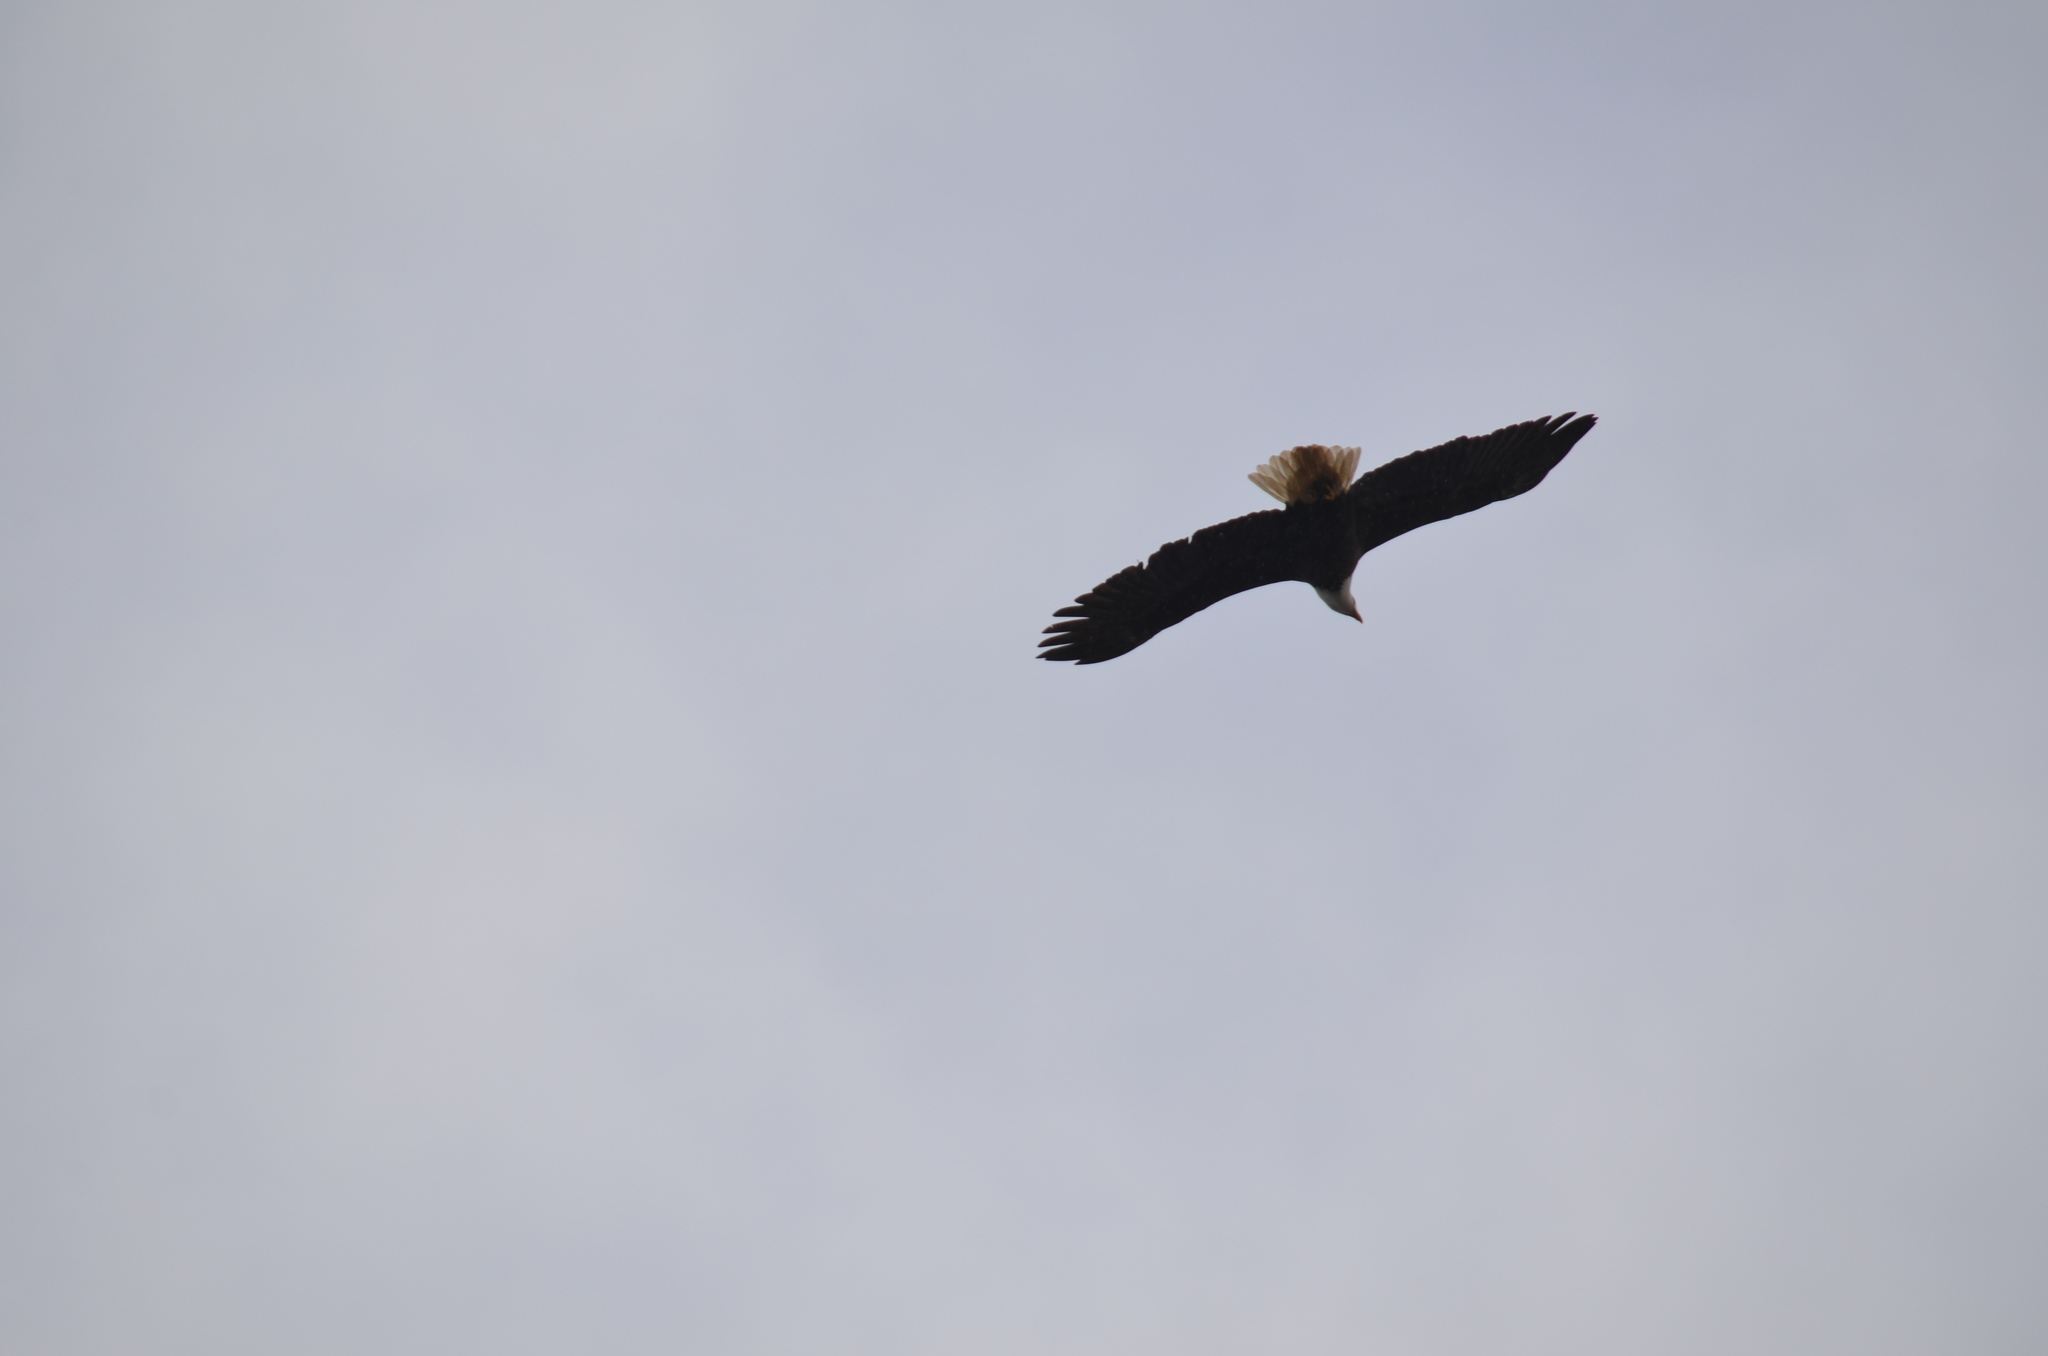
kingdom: Animalia
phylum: Chordata
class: Aves
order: Accipitriformes
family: Accipitridae
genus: Haliaeetus
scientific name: Haliaeetus leucocephalus
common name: Bald eagle
